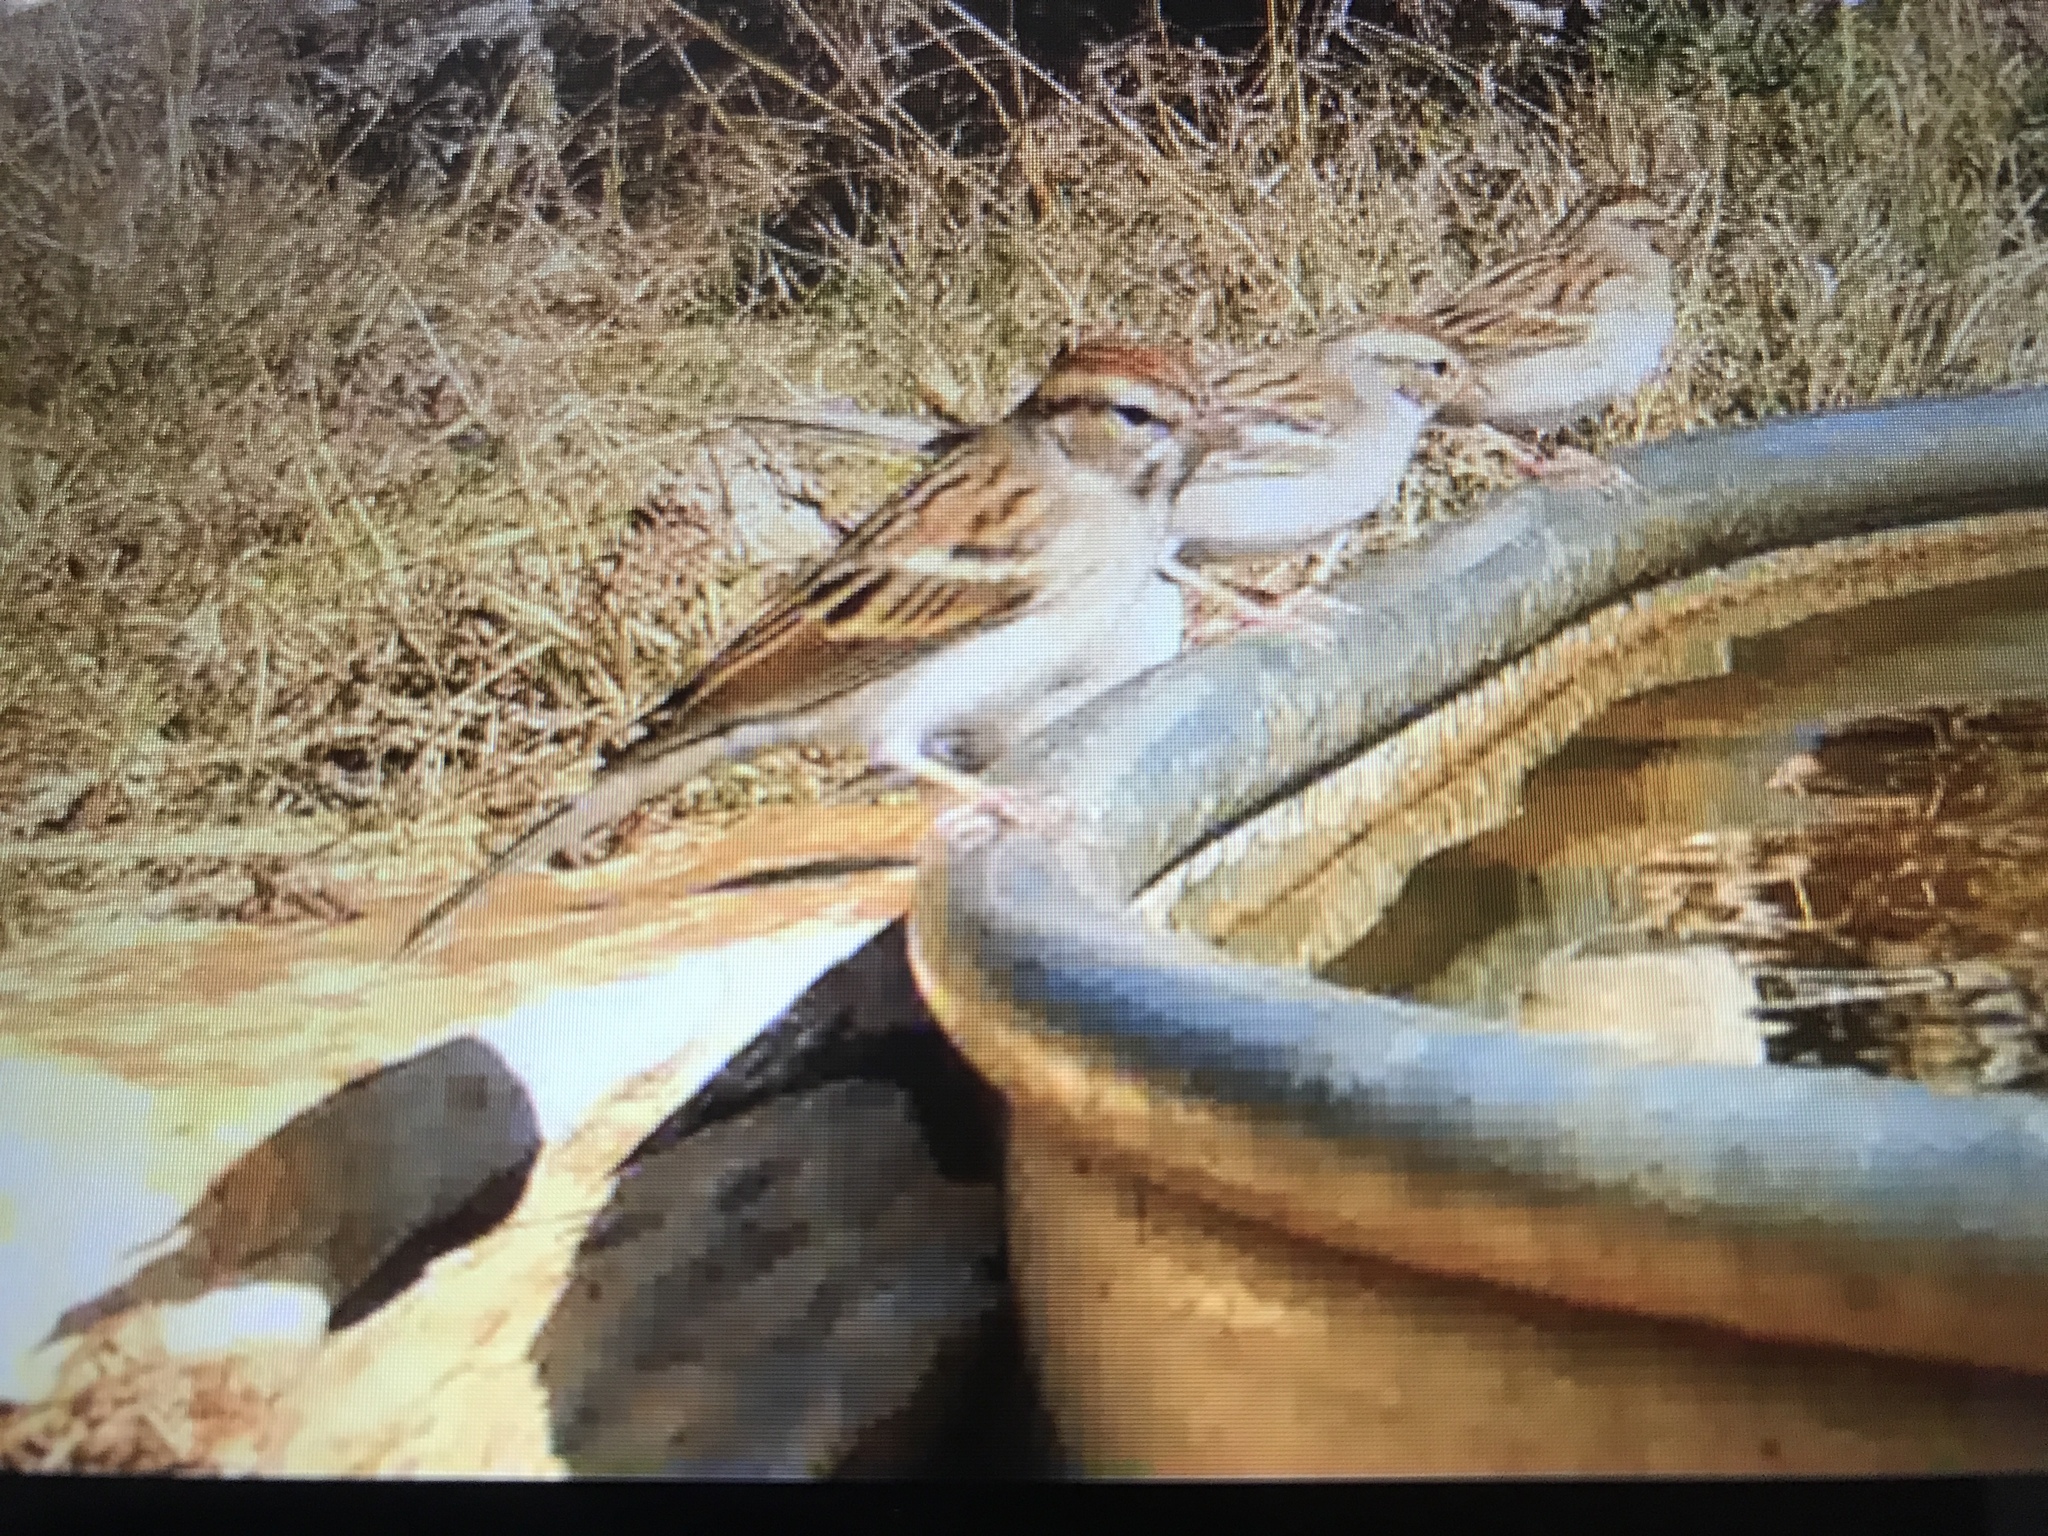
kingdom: Animalia
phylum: Chordata
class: Aves
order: Passeriformes
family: Passerellidae
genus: Spizella
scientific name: Spizella passerina
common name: Chipping sparrow
